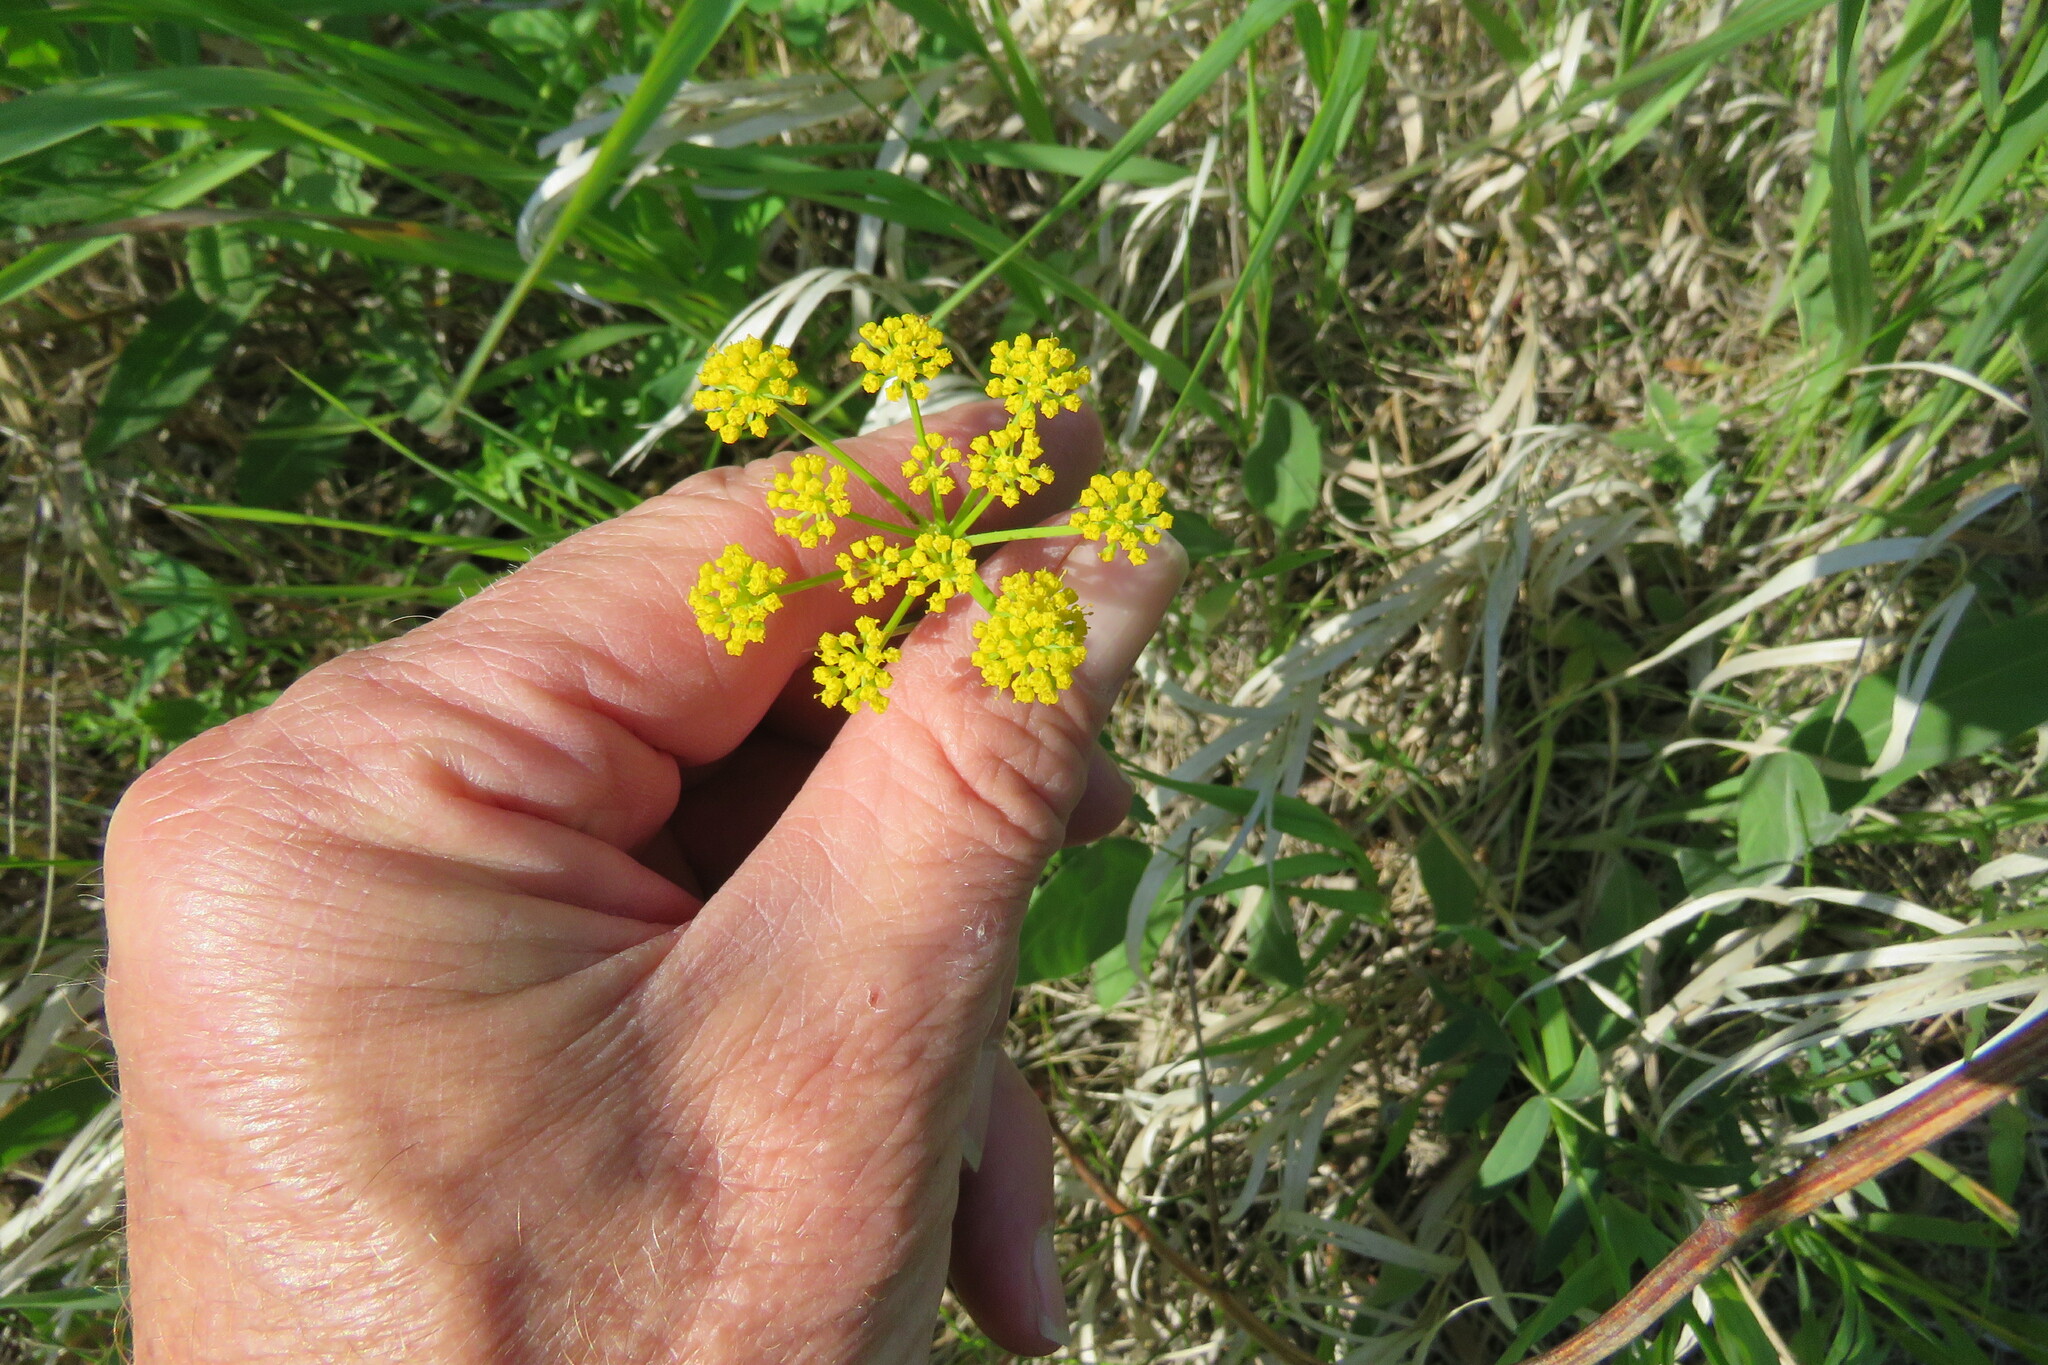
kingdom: Plantae
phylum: Tracheophyta
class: Magnoliopsida
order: Apiales
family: Apiaceae
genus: Zizia
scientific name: Zizia aptera
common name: Heart-leaved alexanders
